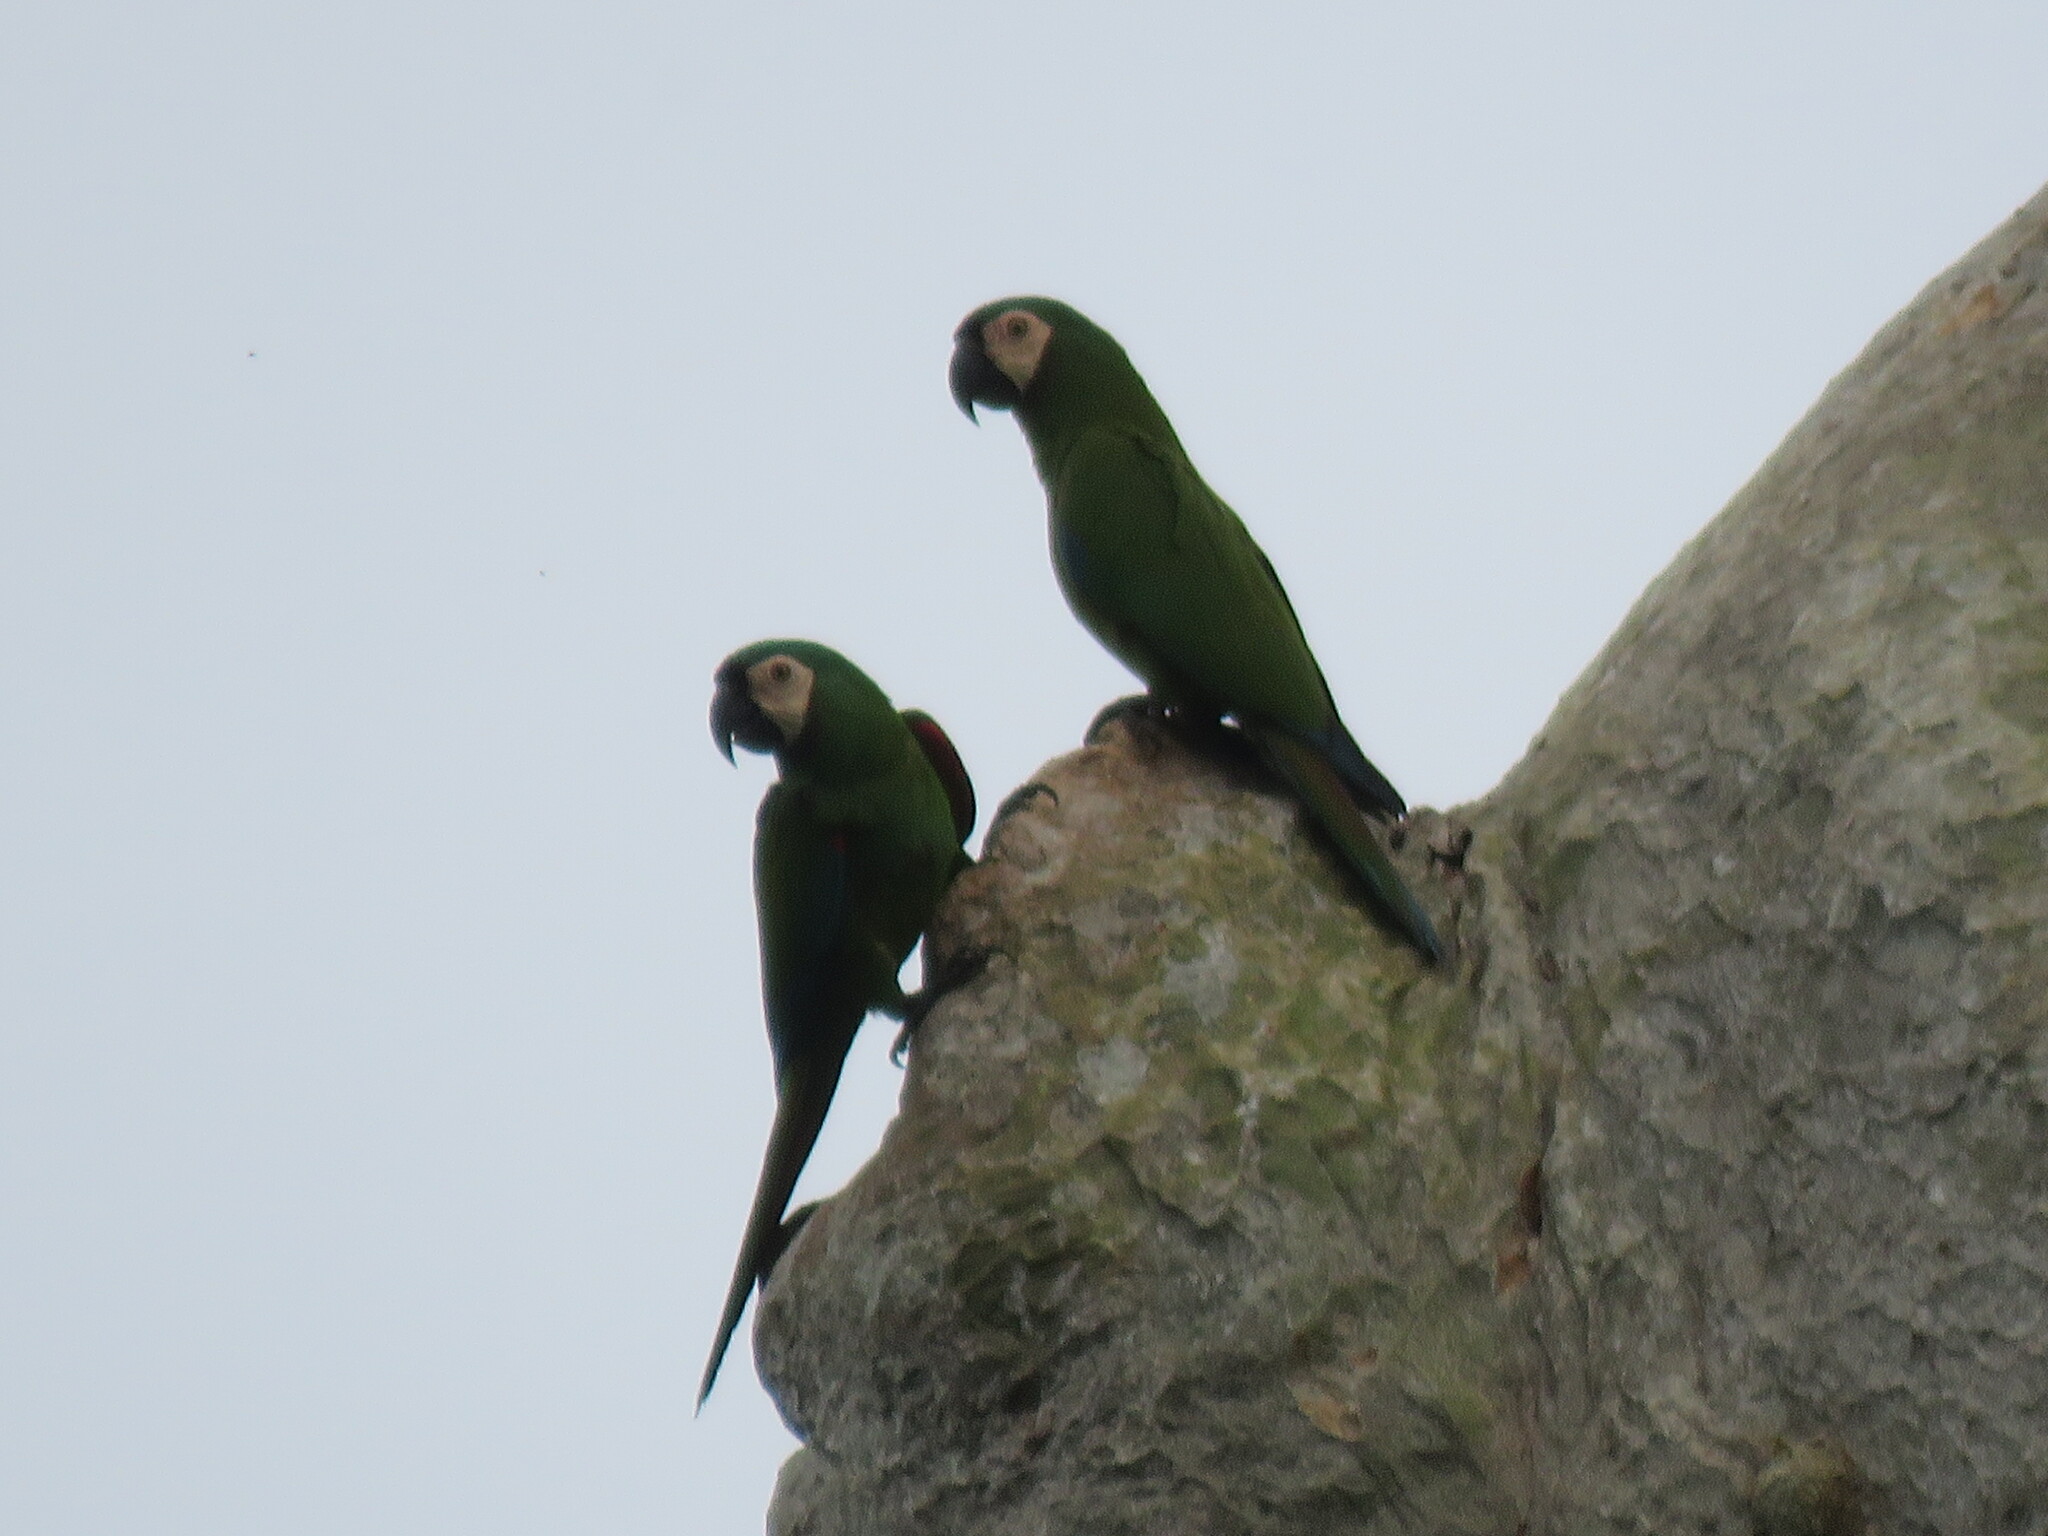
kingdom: Animalia
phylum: Chordata
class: Aves
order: Psittaciformes
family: Psittacidae
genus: Ara
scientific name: Ara severus
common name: Chestnut-fronted macaw
